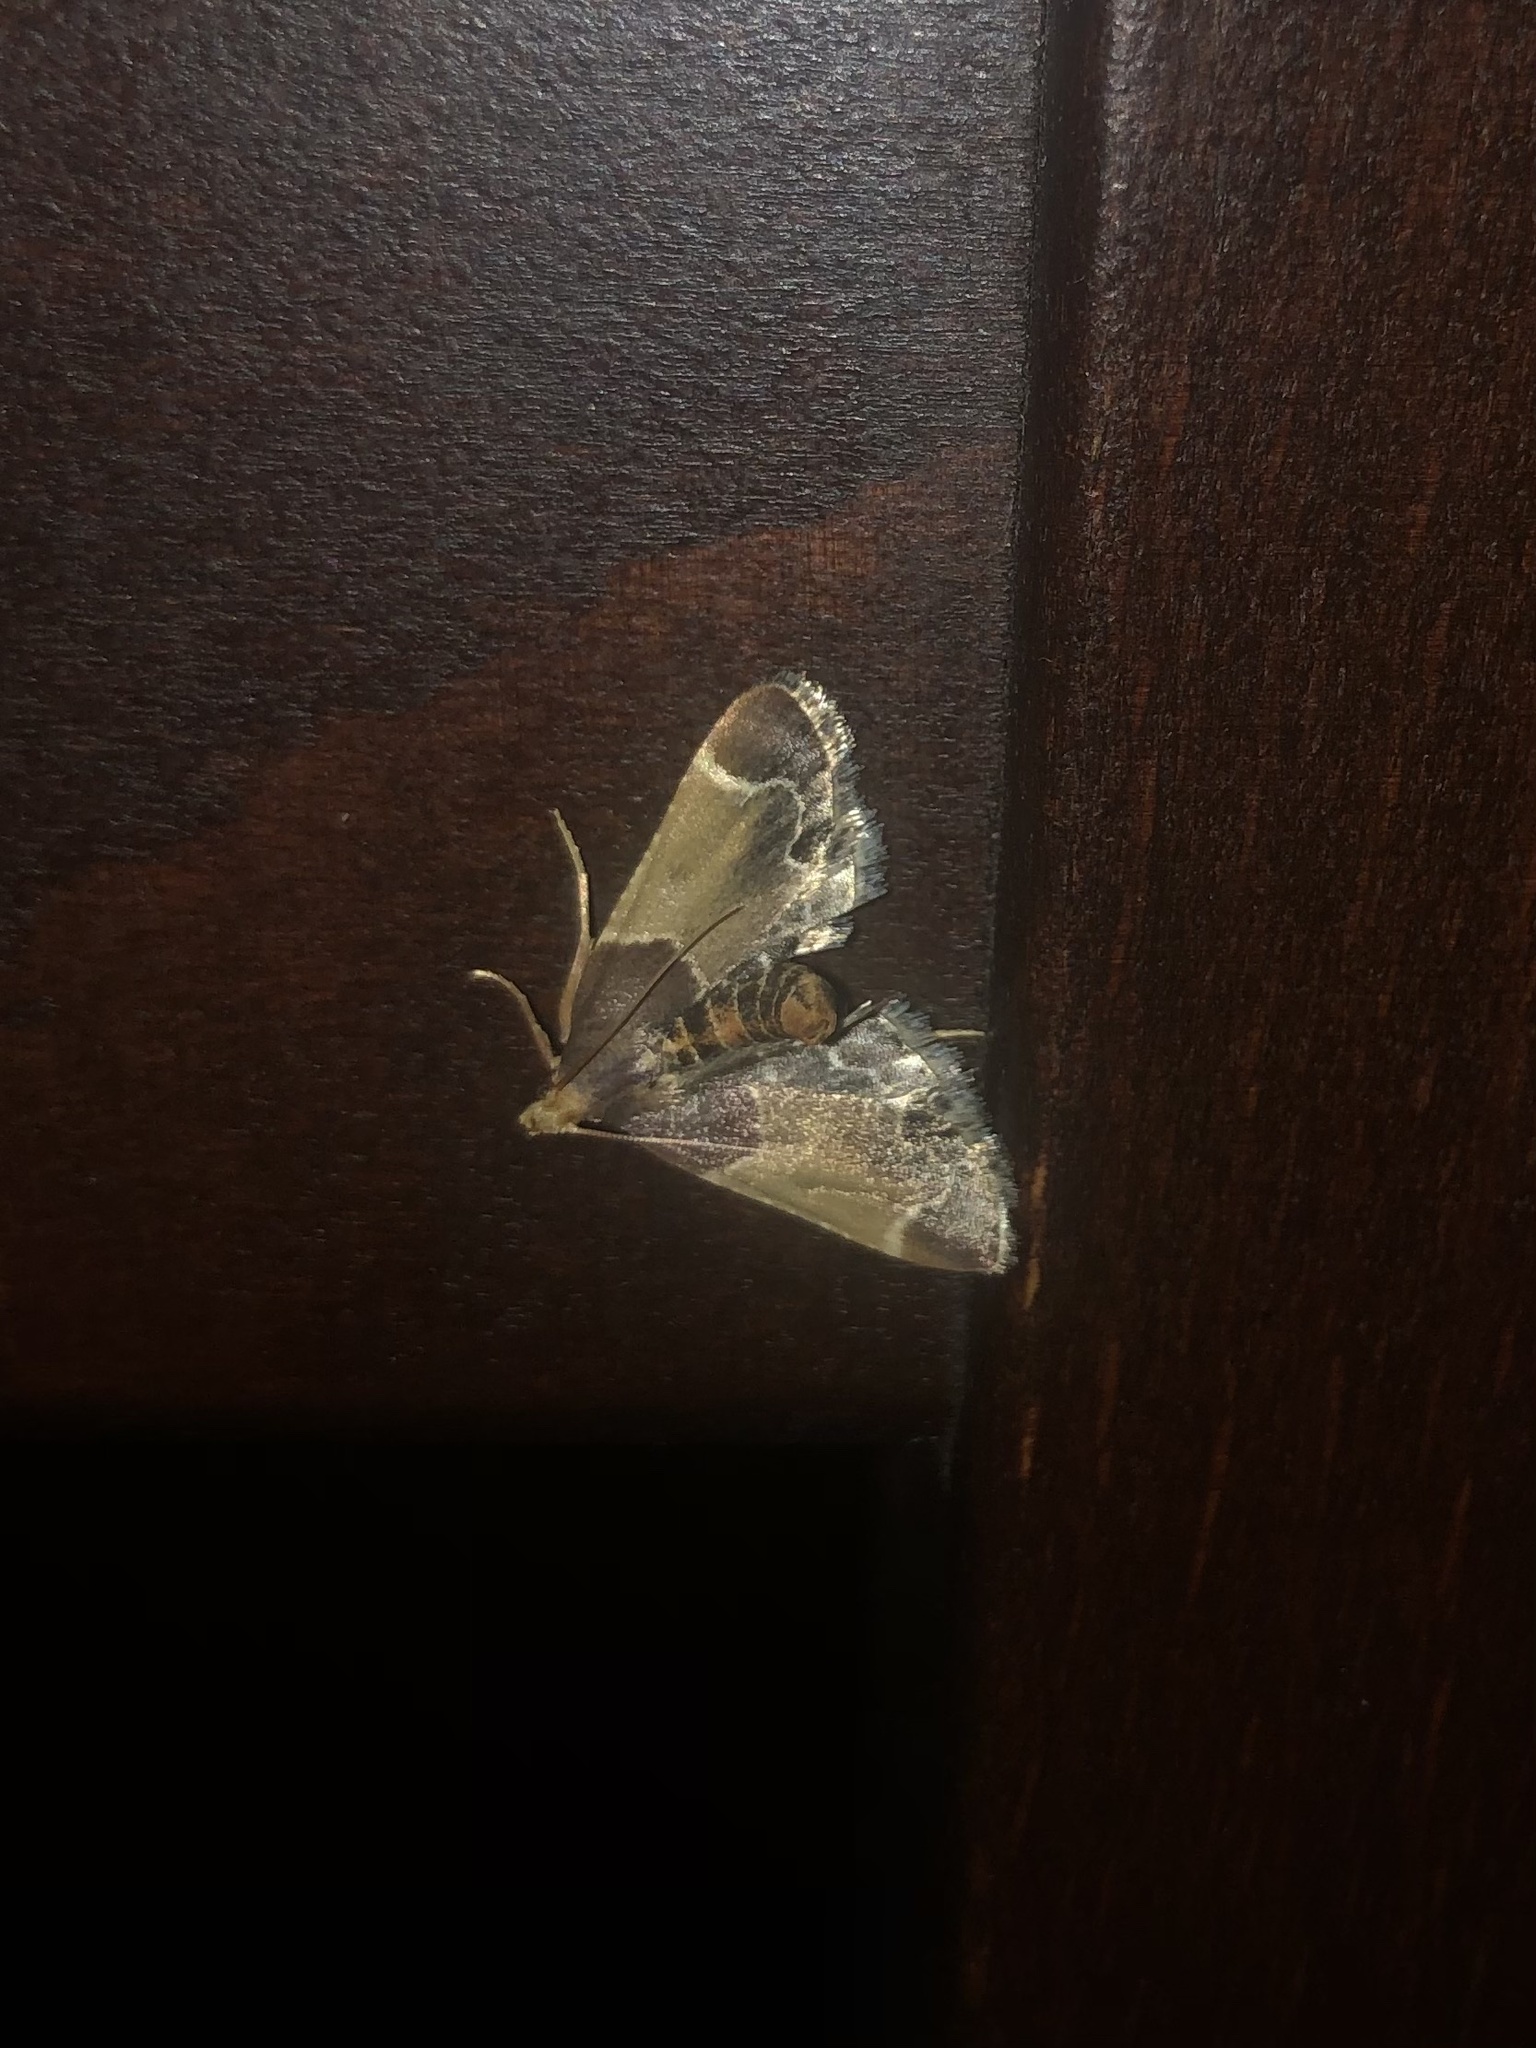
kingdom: Animalia
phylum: Arthropoda
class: Insecta
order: Lepidoptera
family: Pyralidae
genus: Pyralis
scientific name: Pyralis farinalis
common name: Meal moth
